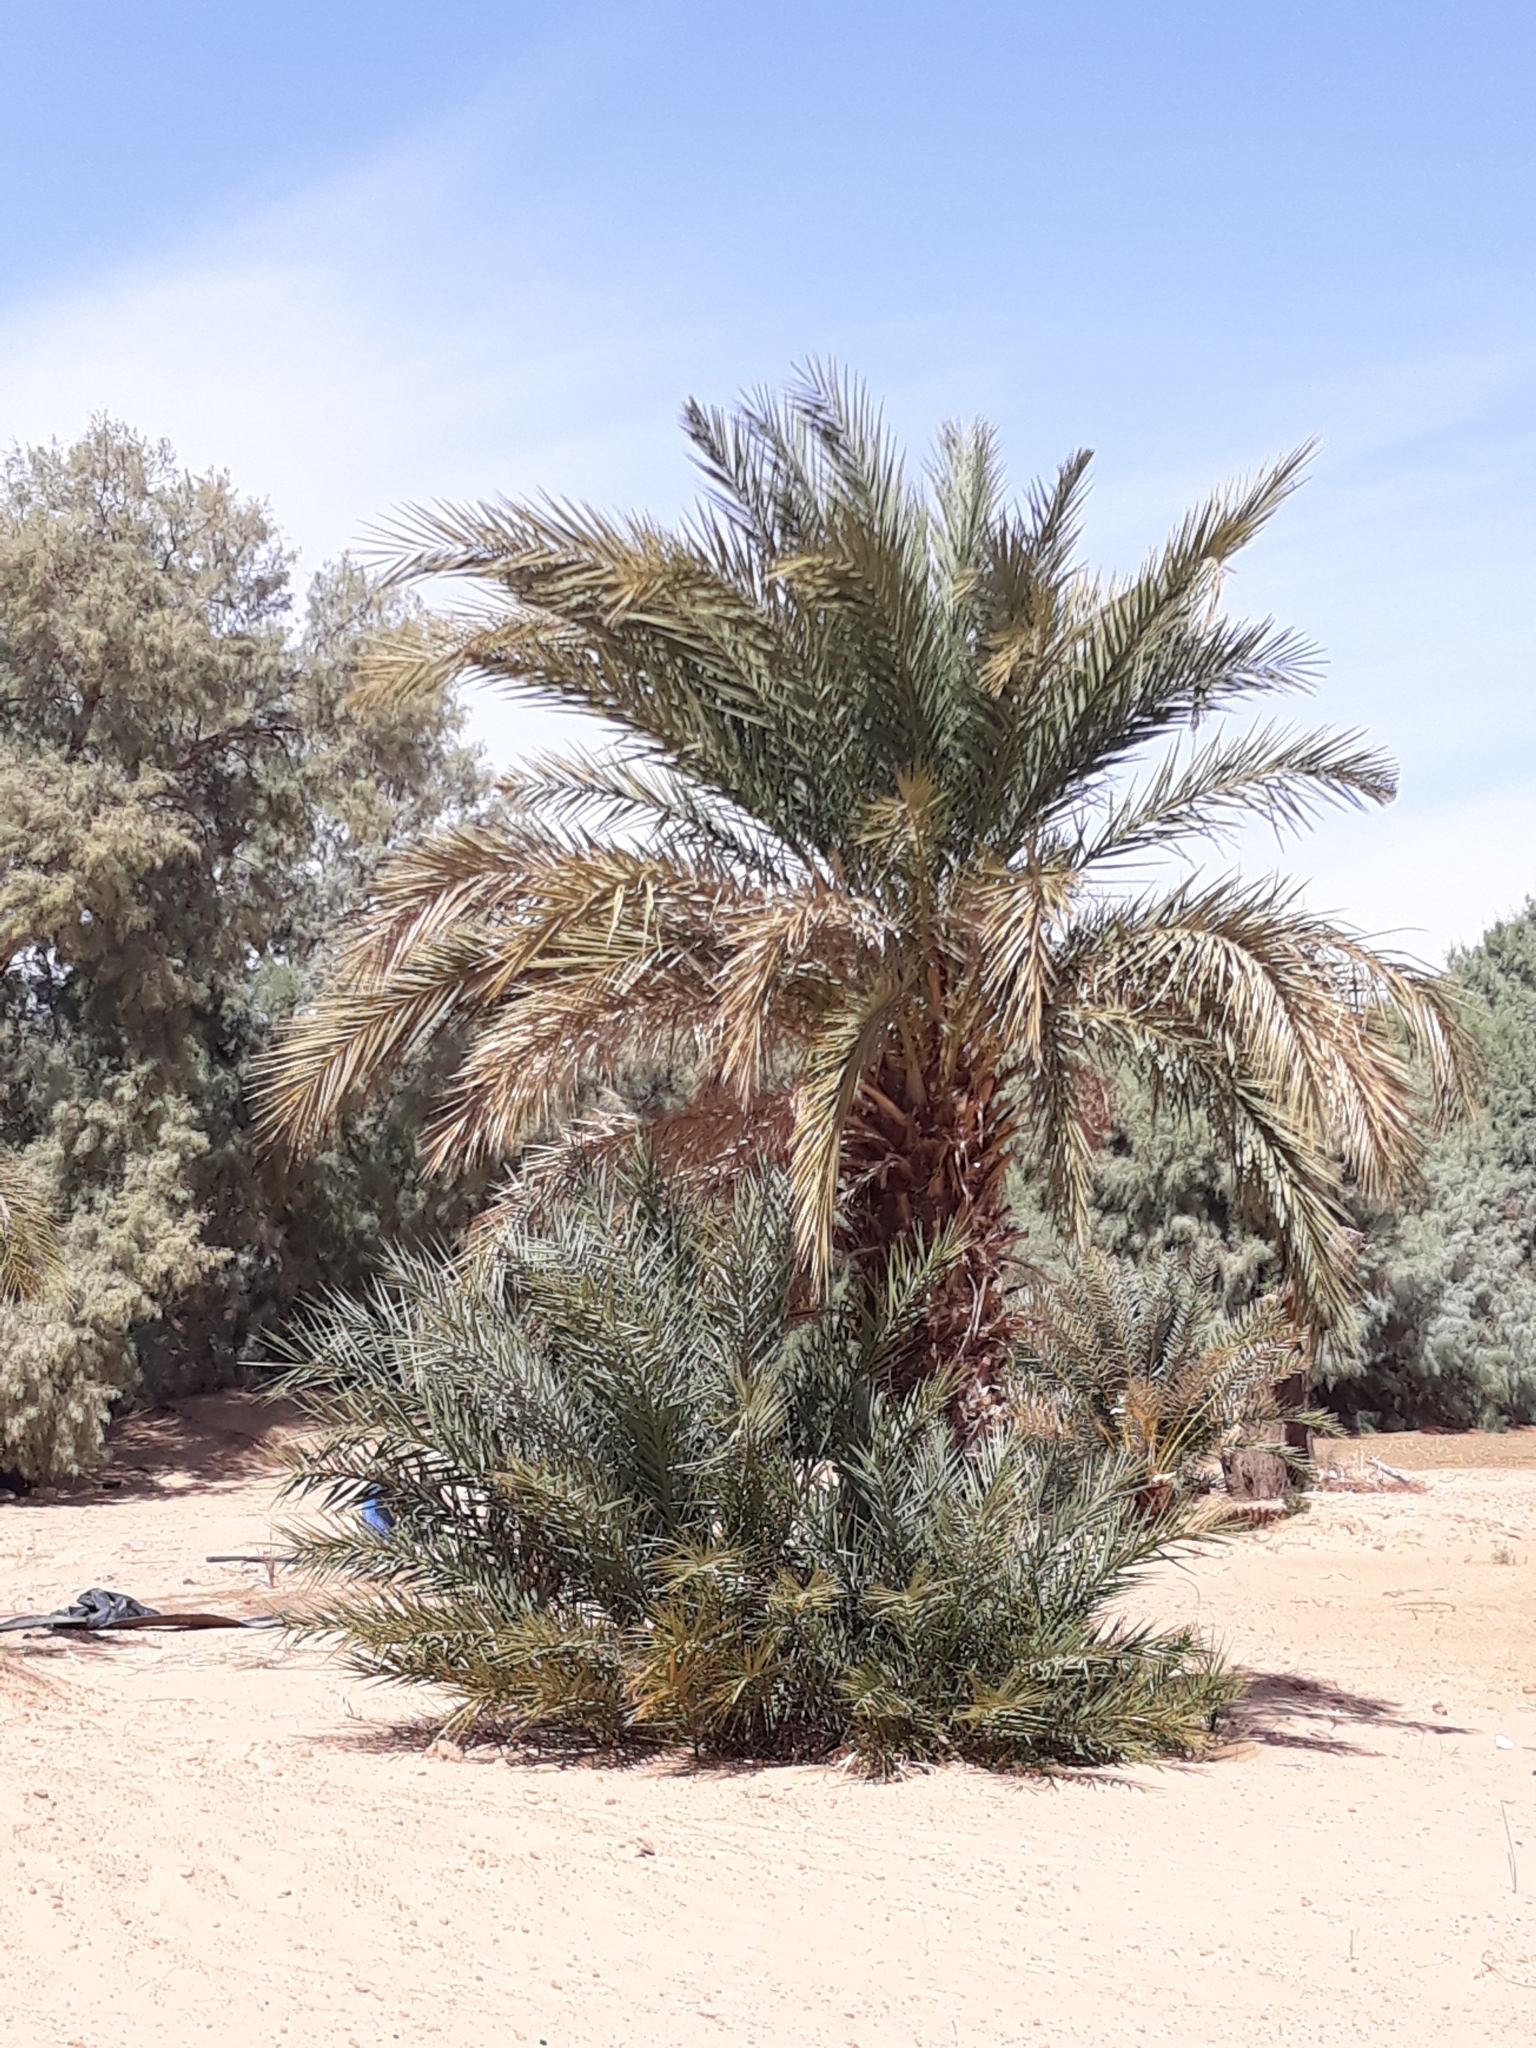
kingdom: Plantae
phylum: Tracheophyta
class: Liliopsida
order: Arecales
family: Arecaceae
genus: Phoenix
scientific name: Phoenix dactylifera
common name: Date palm
